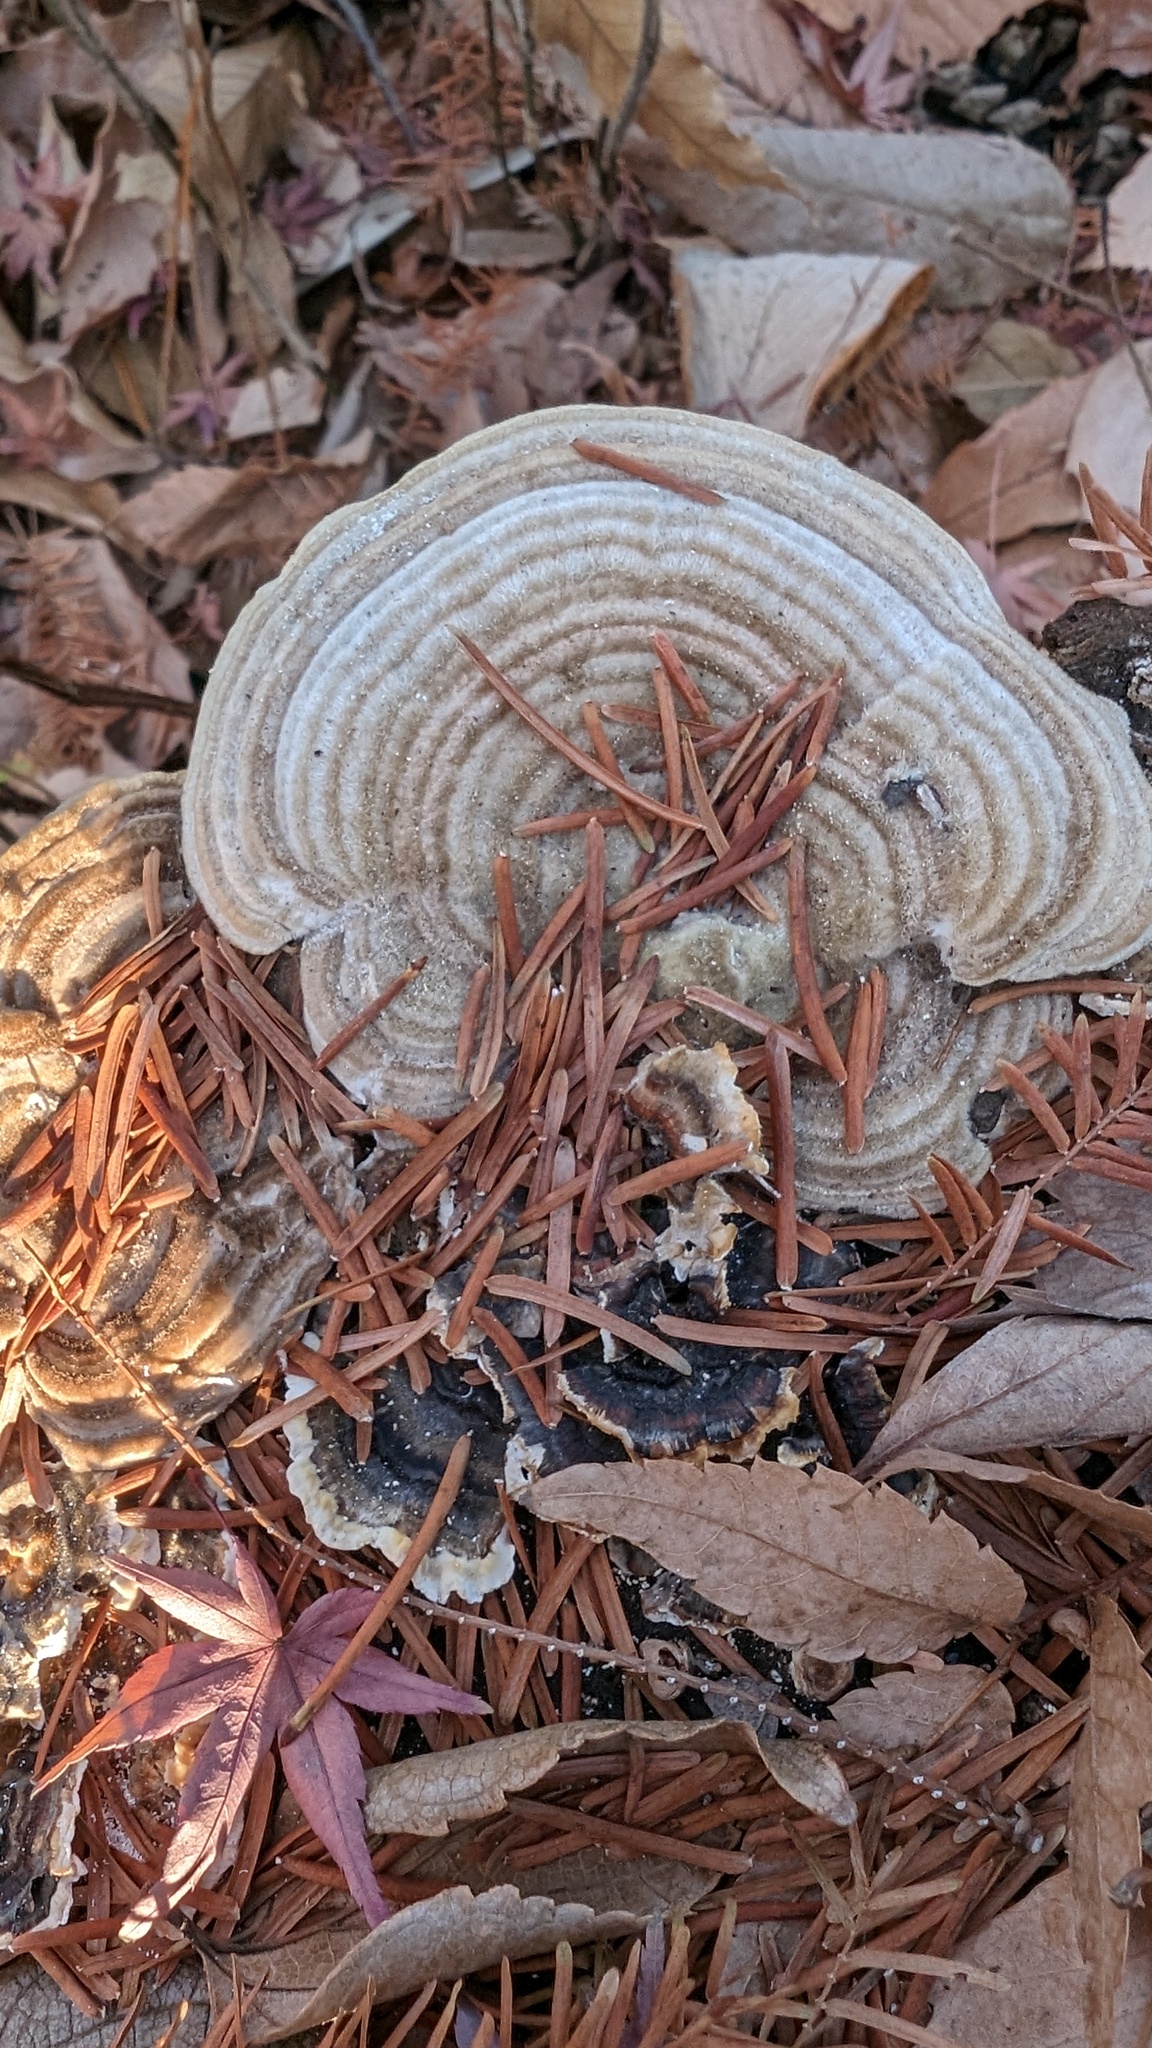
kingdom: Fungi
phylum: Basidiomycota
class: Agaricomycetes
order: Polyporales
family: Polyporaceae
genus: Lenzites
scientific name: Lenzites betulinus
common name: Birch mazegill
